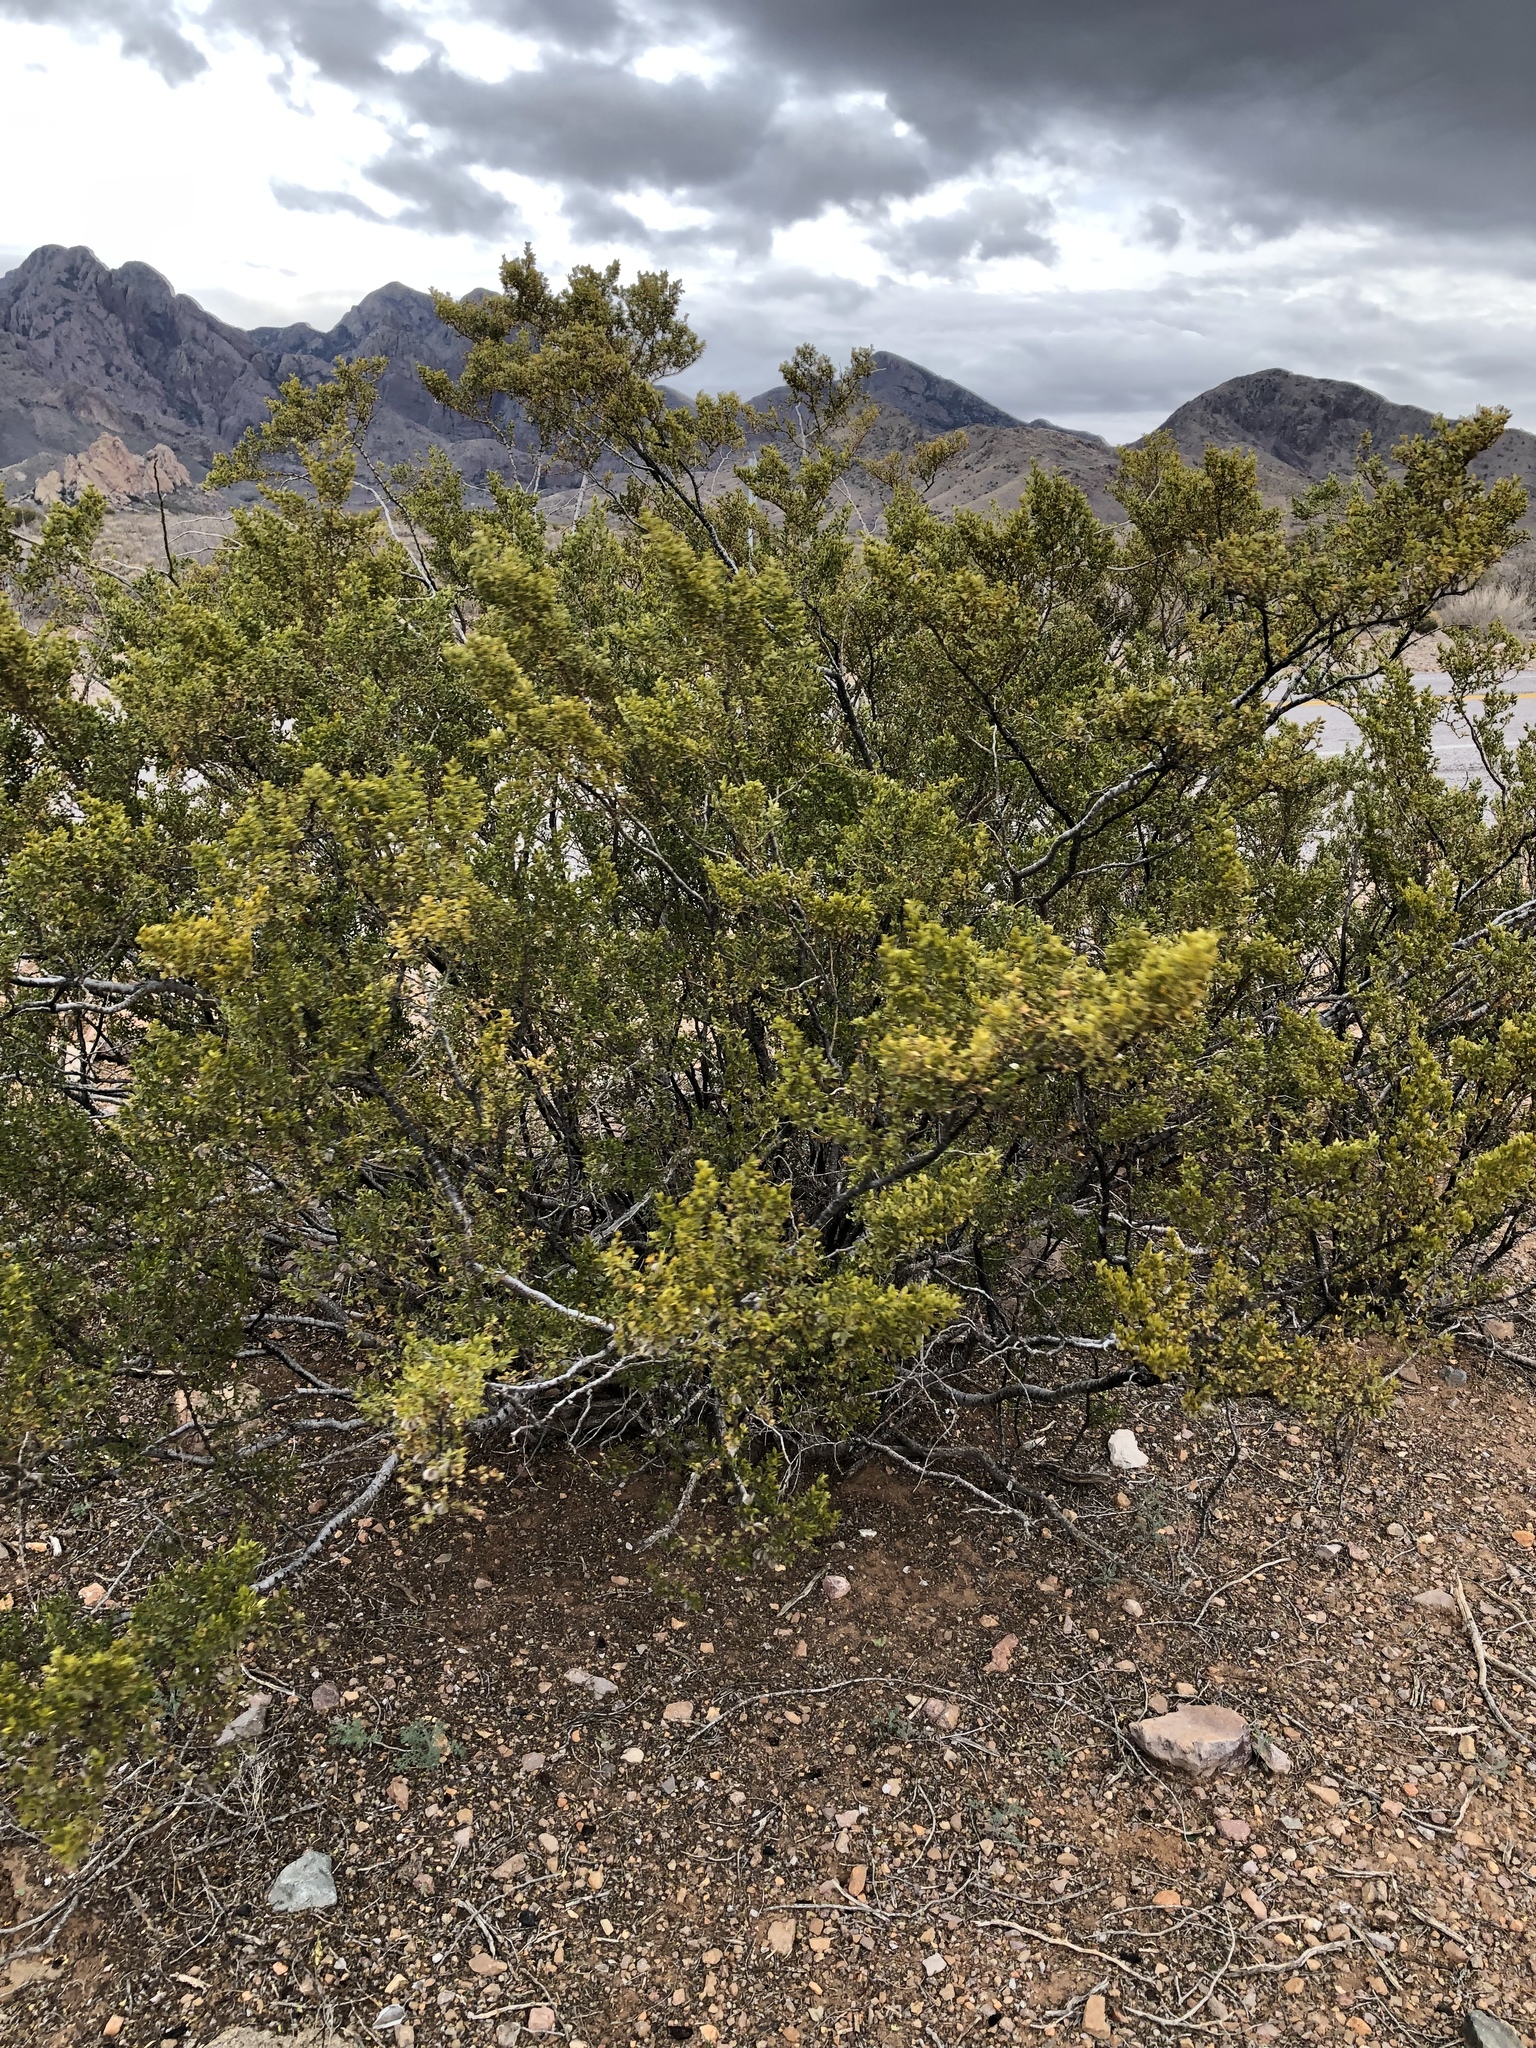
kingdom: Plantae
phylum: Tracheophyta
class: Magnoliopsida
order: Zygophyllales
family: Zygophyllaceae
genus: Larrea
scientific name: Larrea tridentata
